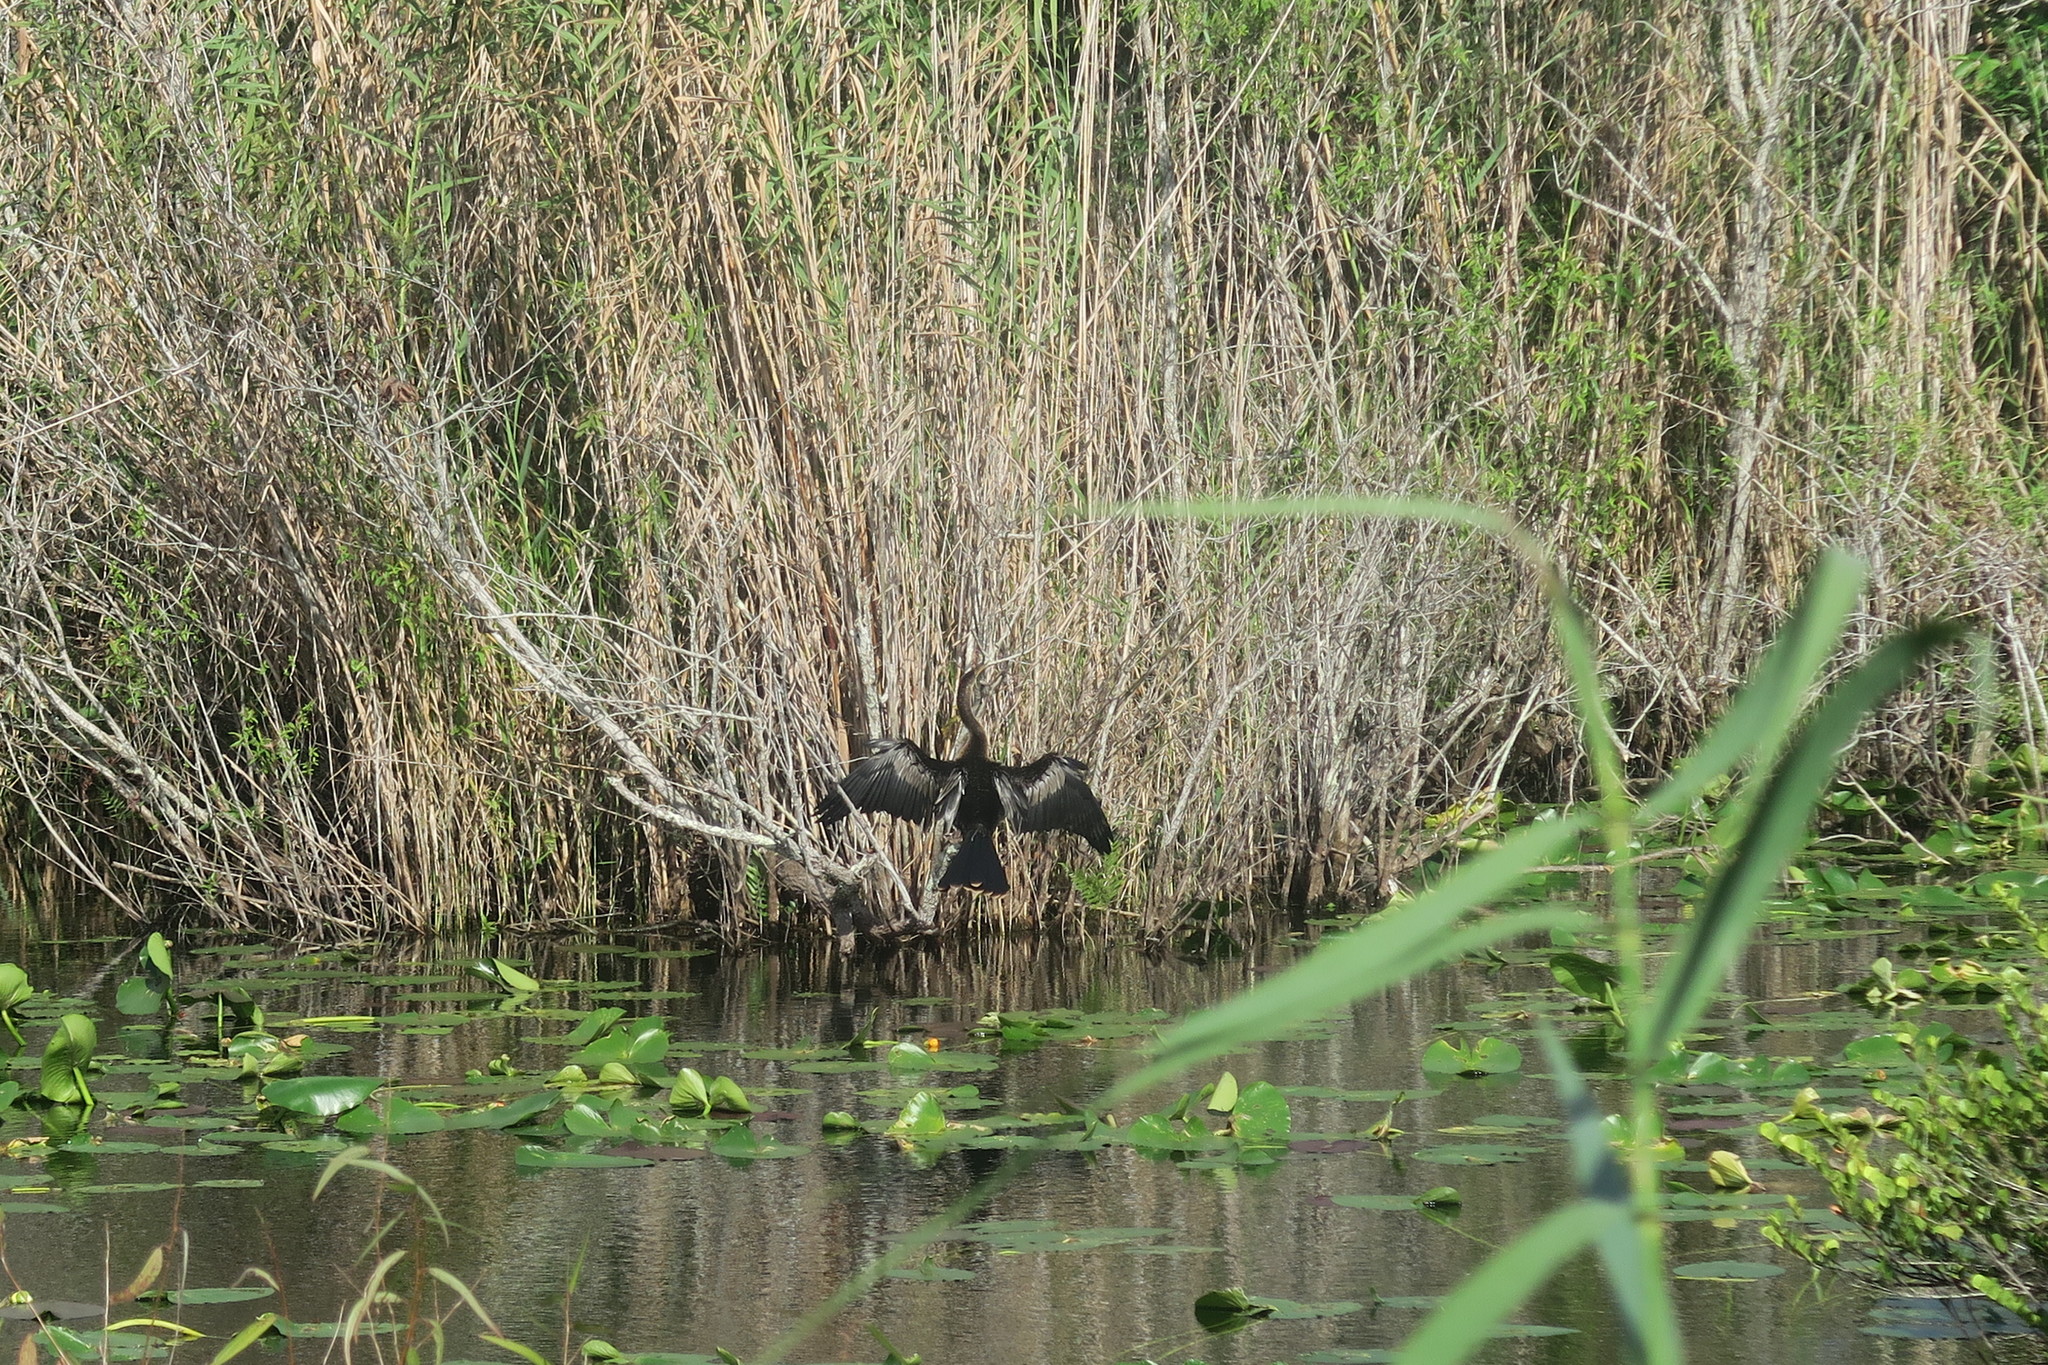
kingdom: Animalia
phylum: Chordata
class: Aves
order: Suliformes
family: Anhingidae
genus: Anhinga
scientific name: Anhinga anhinga
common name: Anhinga
